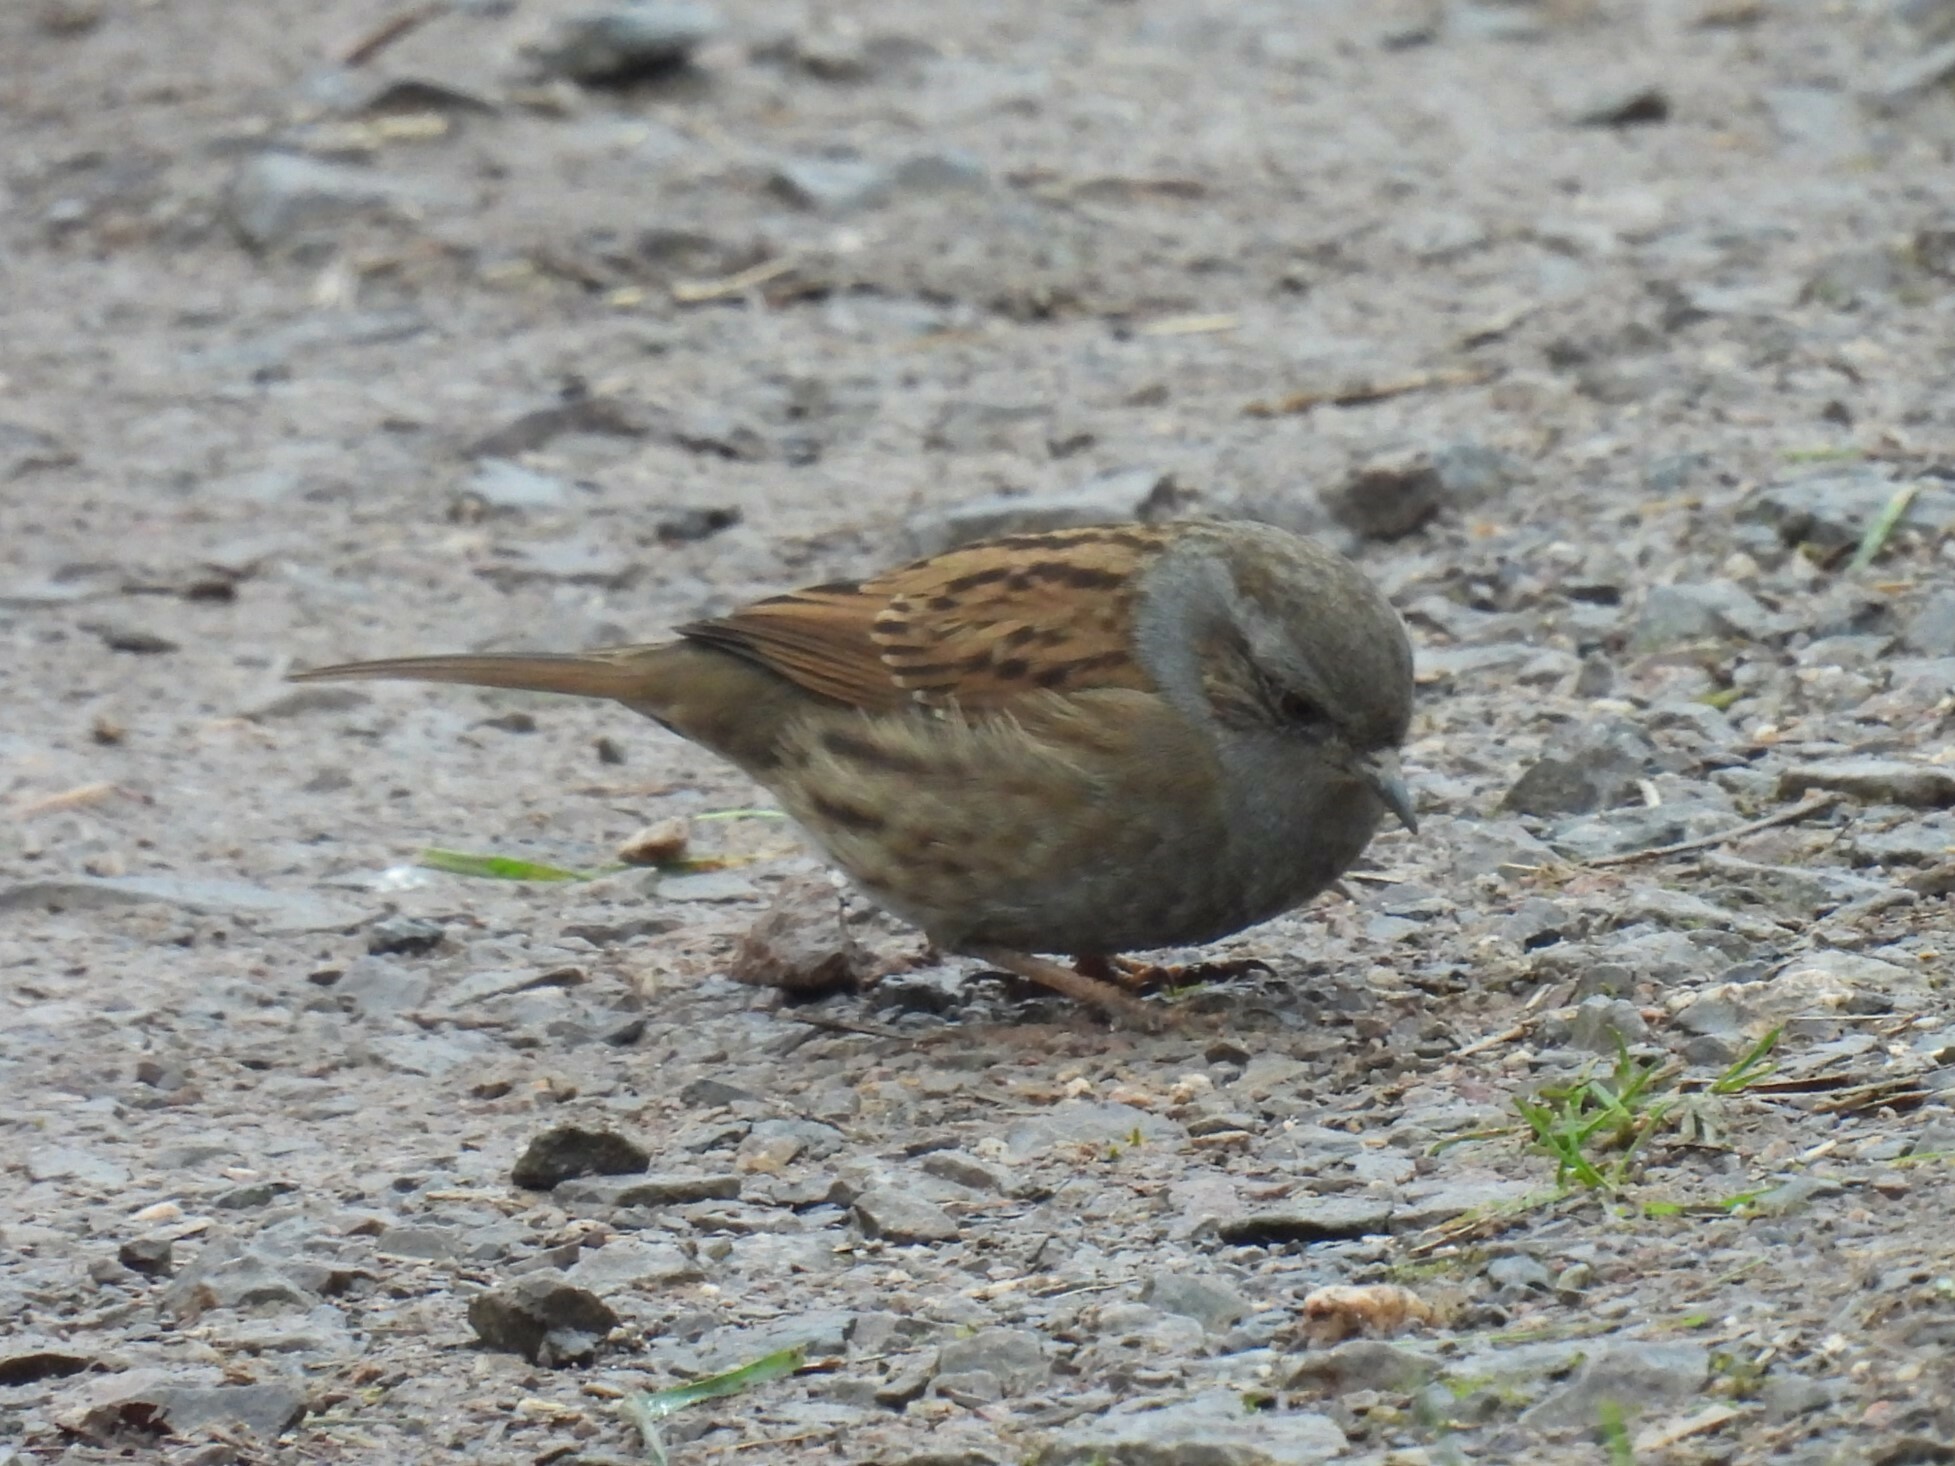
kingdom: Animalia
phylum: Chordata
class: Aves
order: Passeriformes
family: Prunellidae
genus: Prunella
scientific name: Prunella modularis
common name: Dunnock
